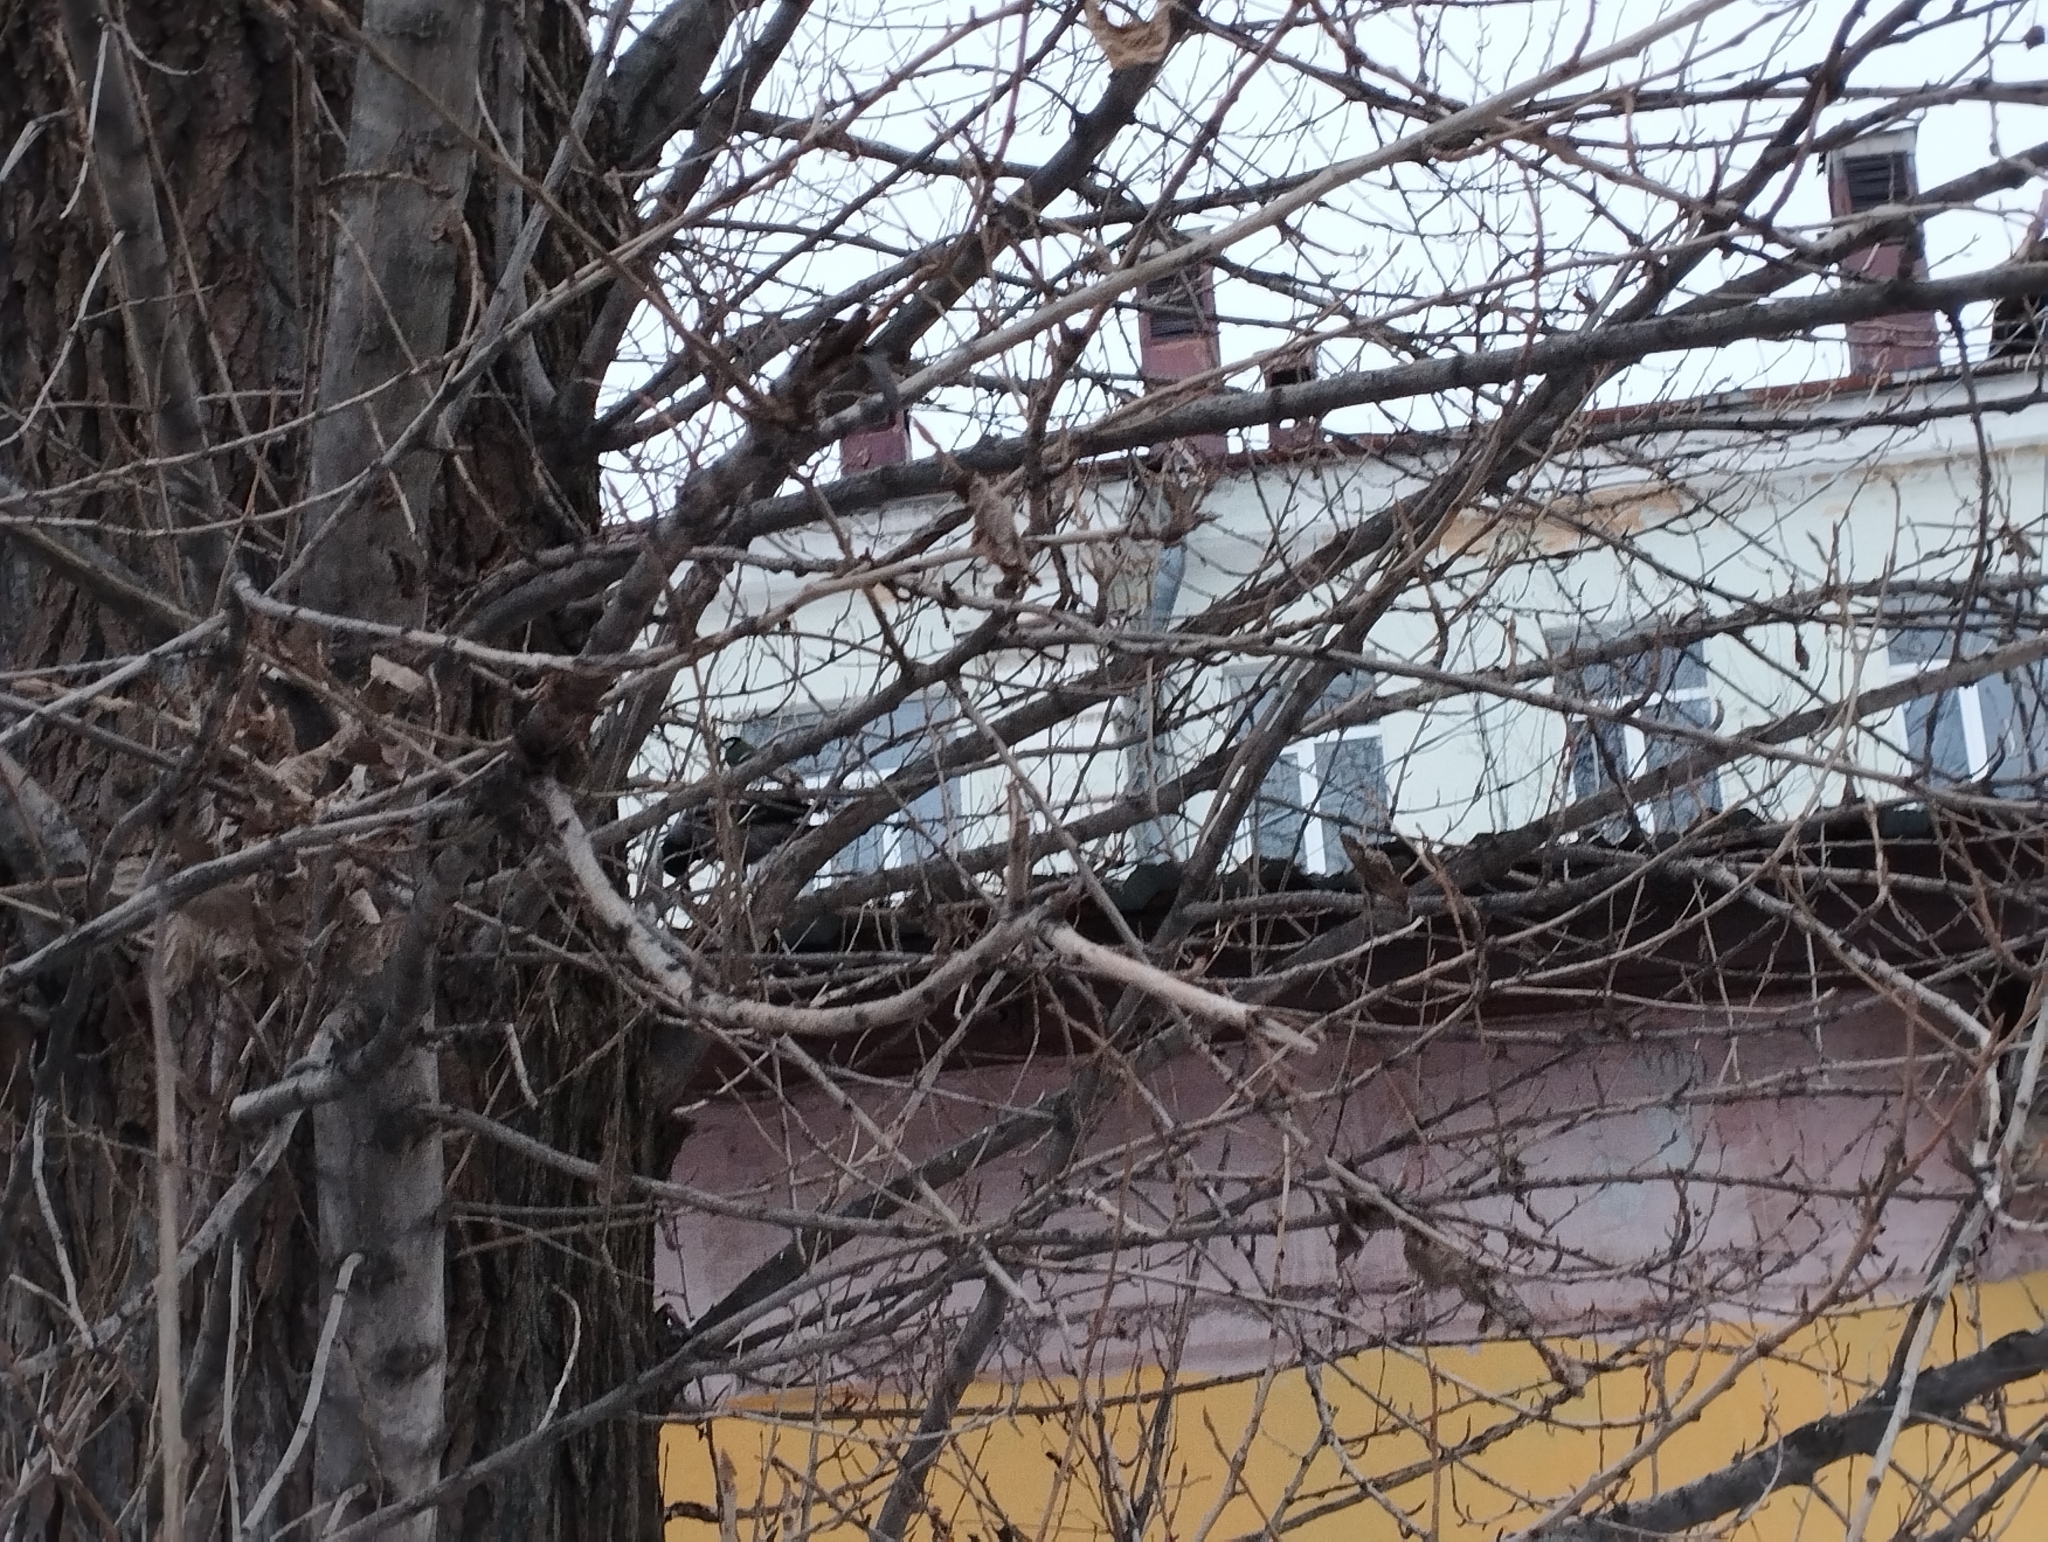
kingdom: Animalia
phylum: Chordata
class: Aves
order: Passeriformes
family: Corvidae
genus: Corvus
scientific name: Corvus cornix
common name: Hooded crow
